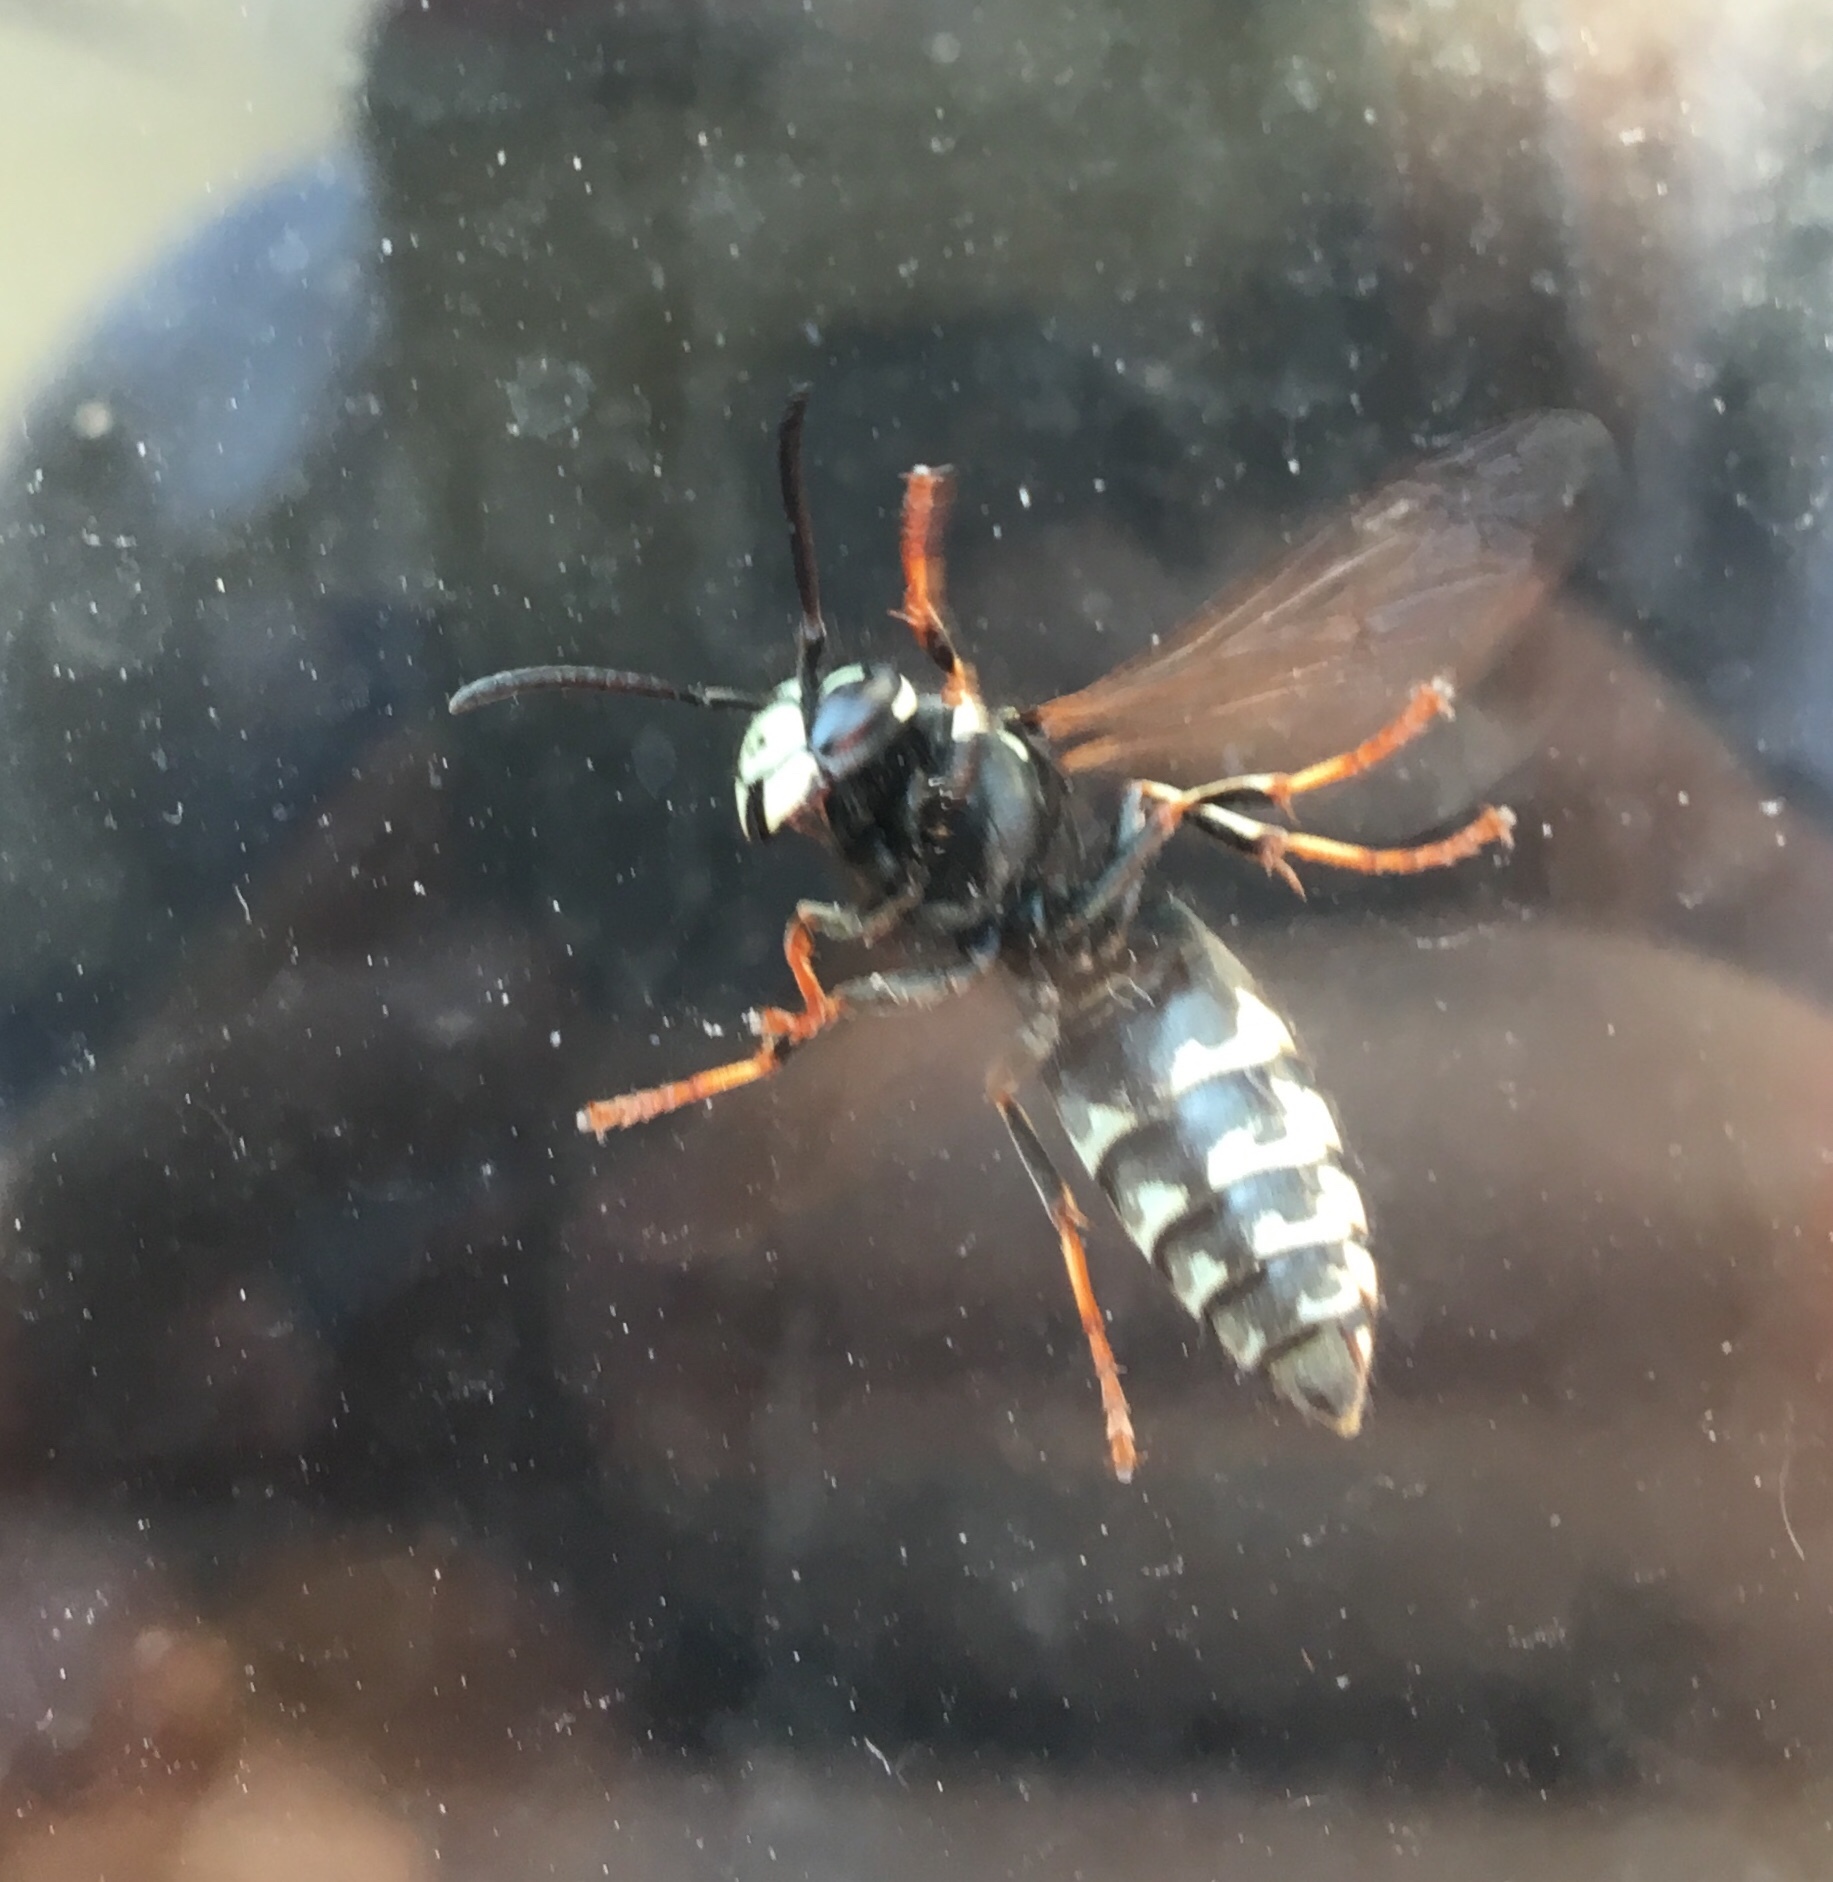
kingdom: Animalia
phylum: Arthropoda
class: Insecta
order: Hymenoptera
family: Vespidae
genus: Vespula
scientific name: Vespula consobrina
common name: Blackjacket
